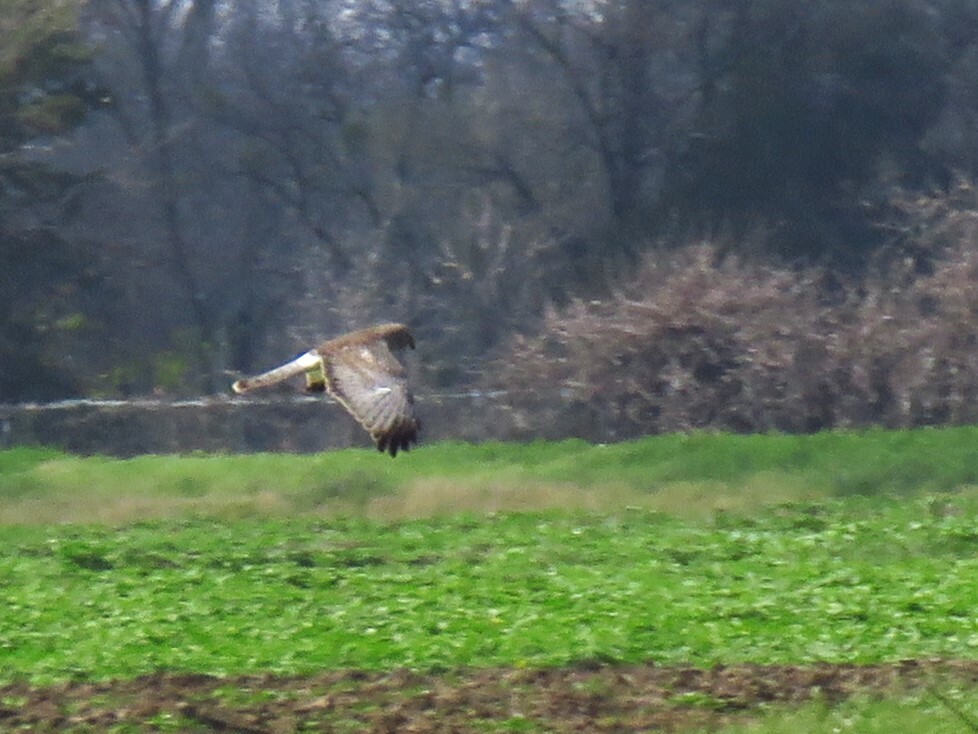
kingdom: Animalia
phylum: Chordata
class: Aves
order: Accipitriformes
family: Accipitridae
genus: Circus
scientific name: Circus cyaneus
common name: Hen harrier
